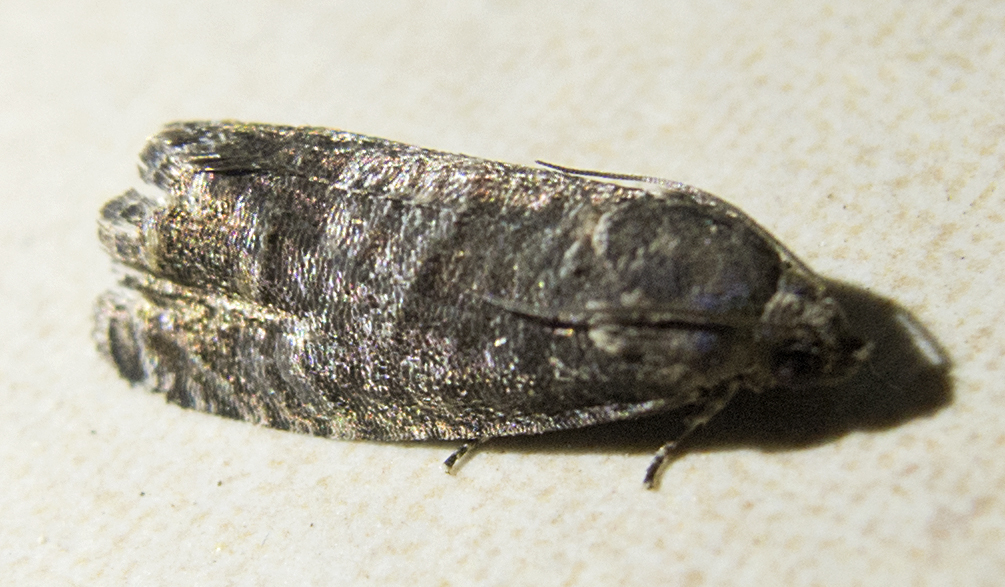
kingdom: Animalia
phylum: Arthropoda
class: Insecta
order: Lepidoptera
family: Tortricidae
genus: Cydia
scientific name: Cydia pyrivora
